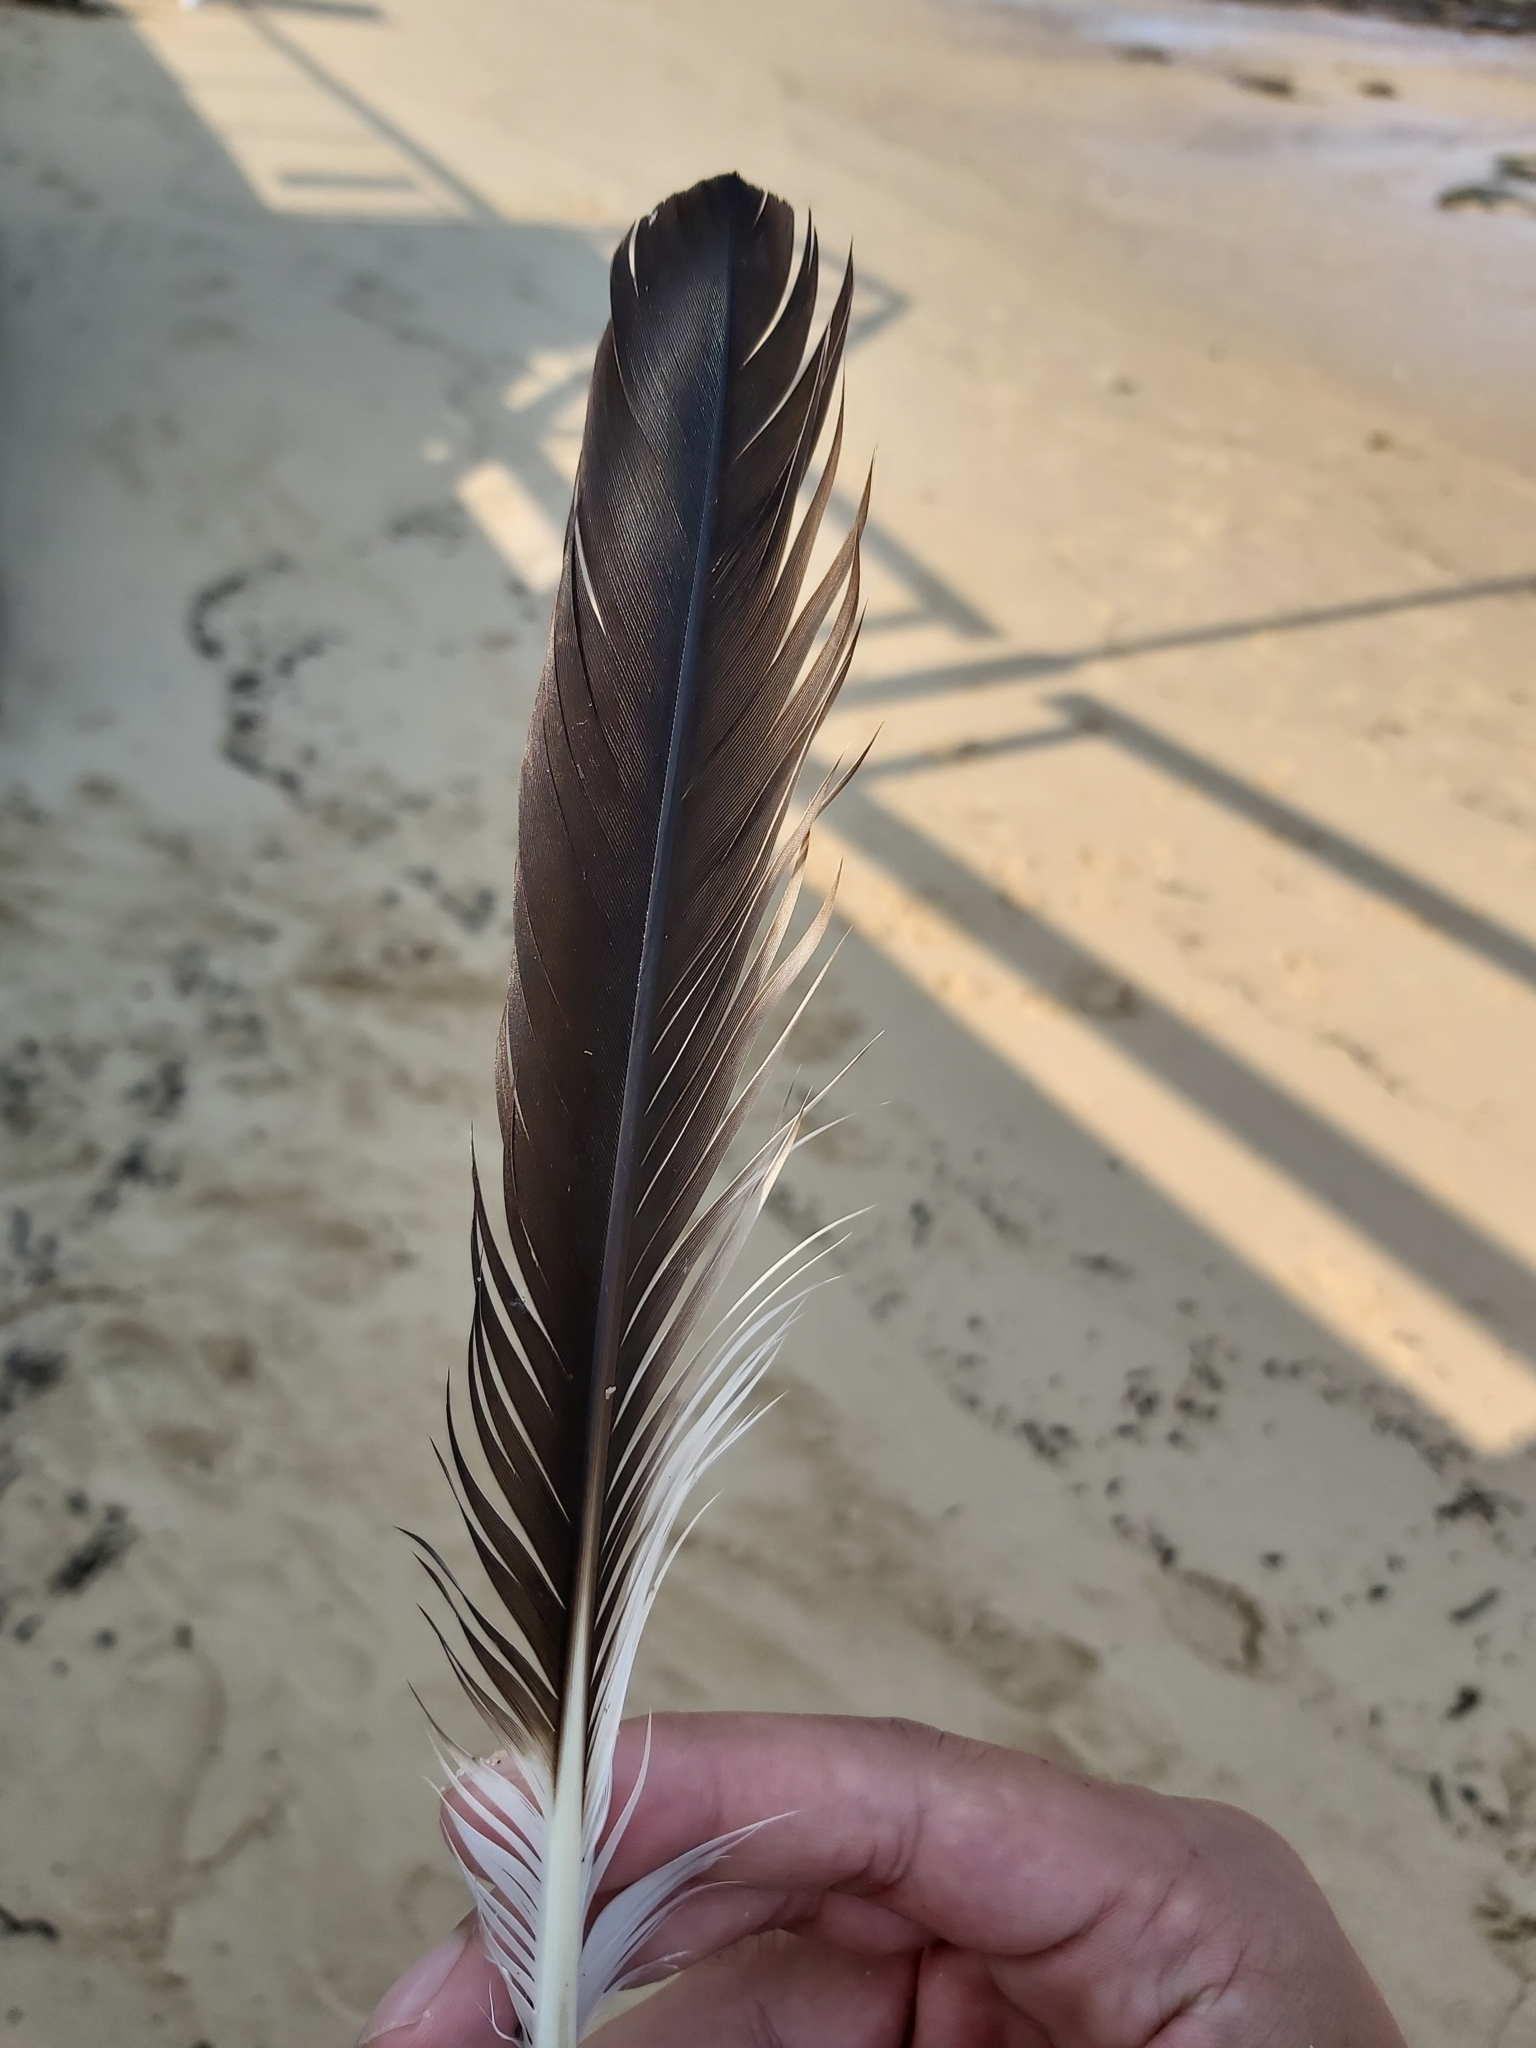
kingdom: Animalia
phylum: Chordata
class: Aves
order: Pelecaniformes
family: Pelecanidae
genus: Pelecanus
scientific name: Pelecanus conspicillatus
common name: Australian pelican
